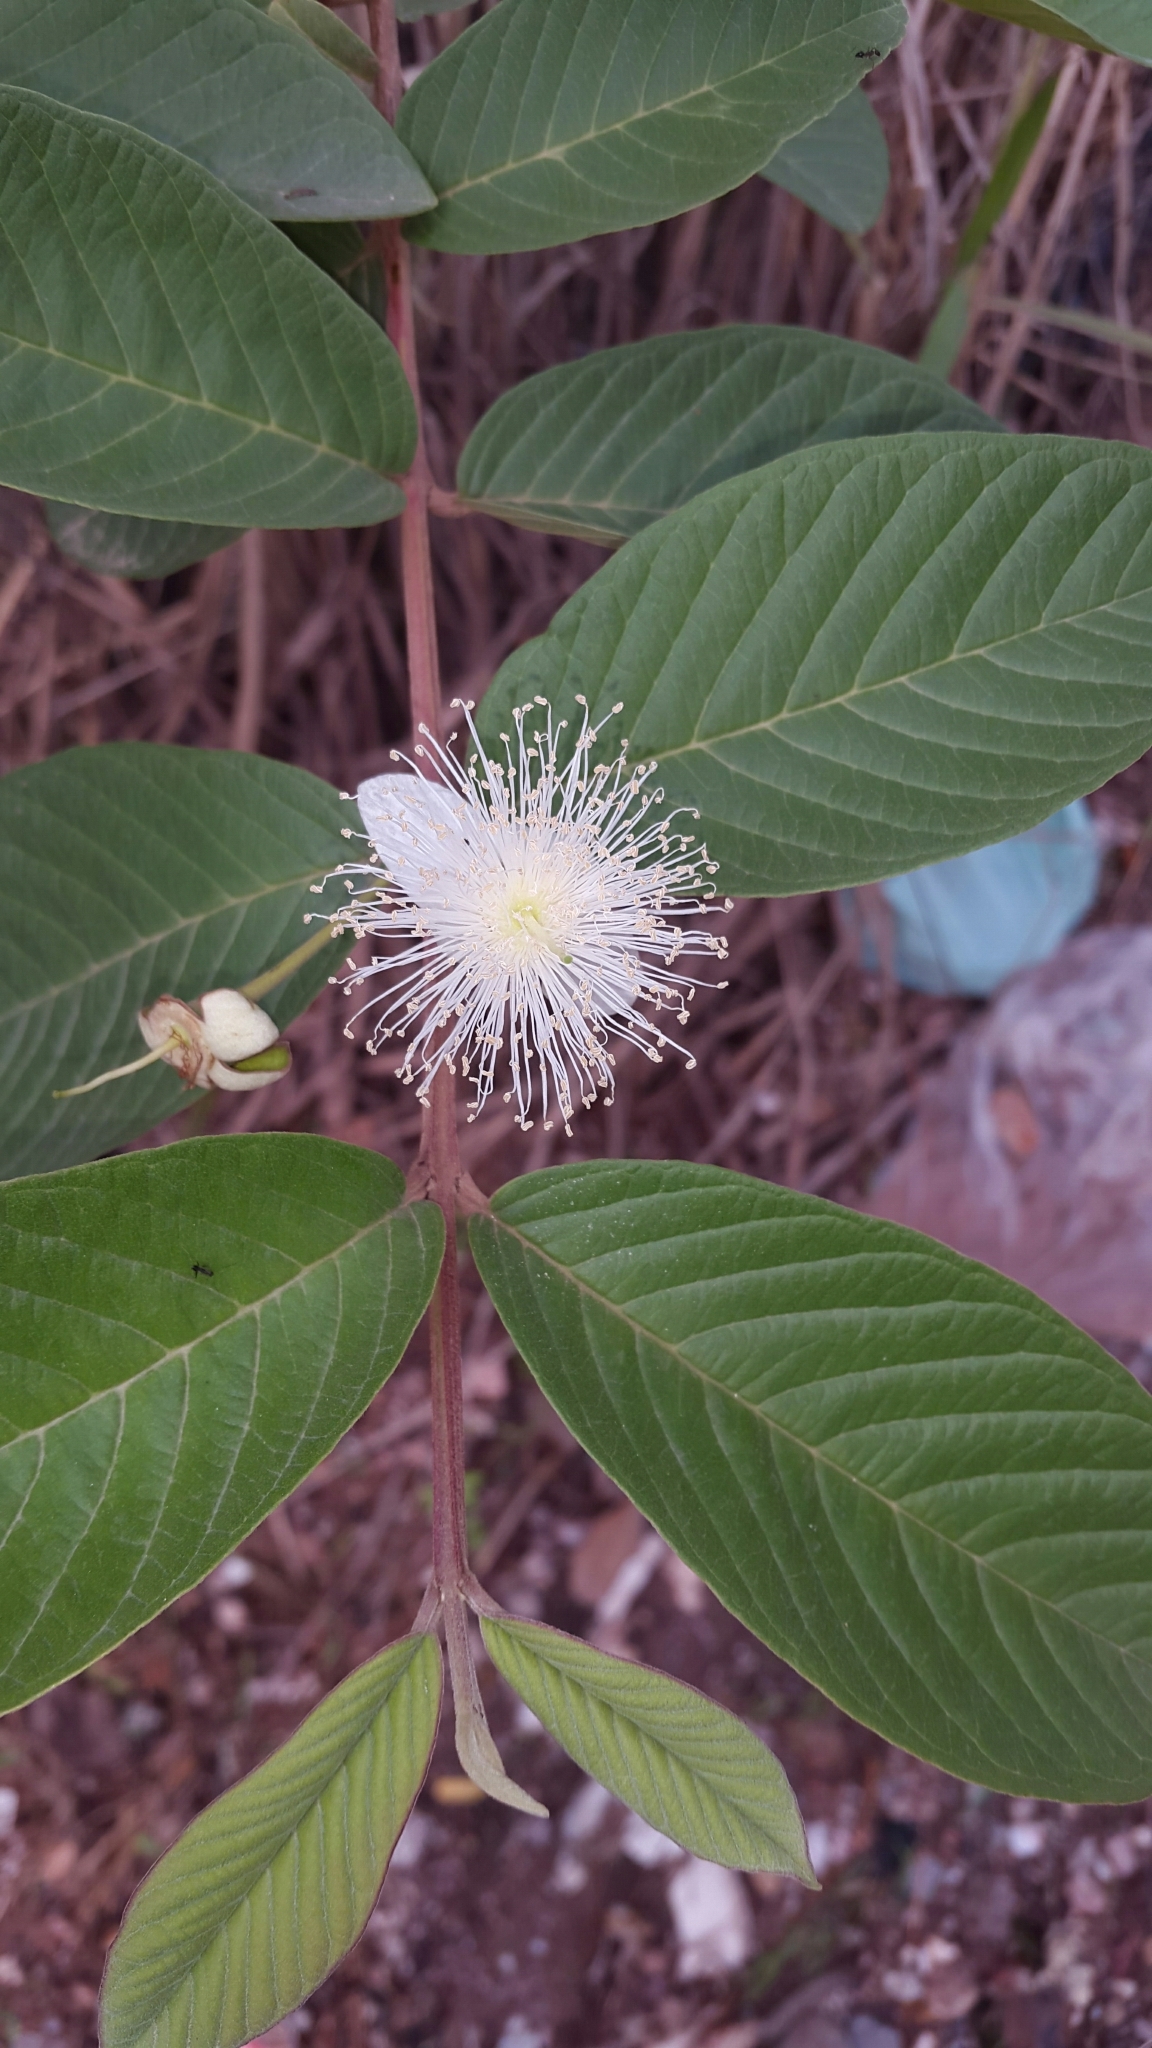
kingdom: Plantae
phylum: Tracheophyta
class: Magnoliopsida
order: Myrtales
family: Myrtaceae
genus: Psidium
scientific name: Psidium guajava
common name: Guava
